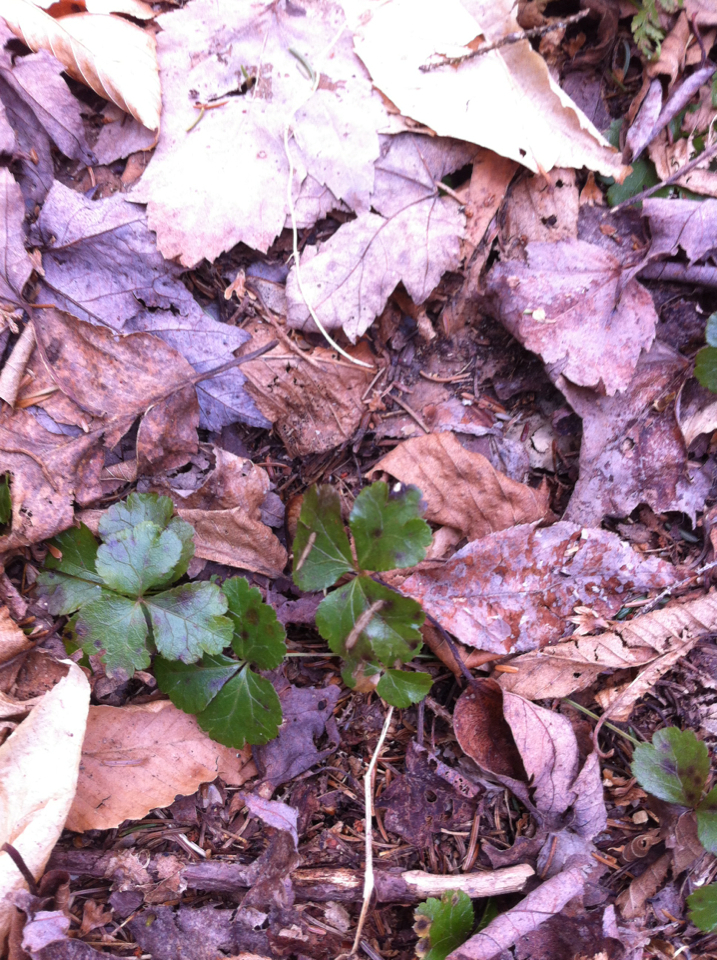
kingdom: Plantae
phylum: Tracheophyta
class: Magnoliopsida
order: Ranunculales
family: Ranunculaceae
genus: Coptis
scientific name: Coptis trifolia
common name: Canker-root
